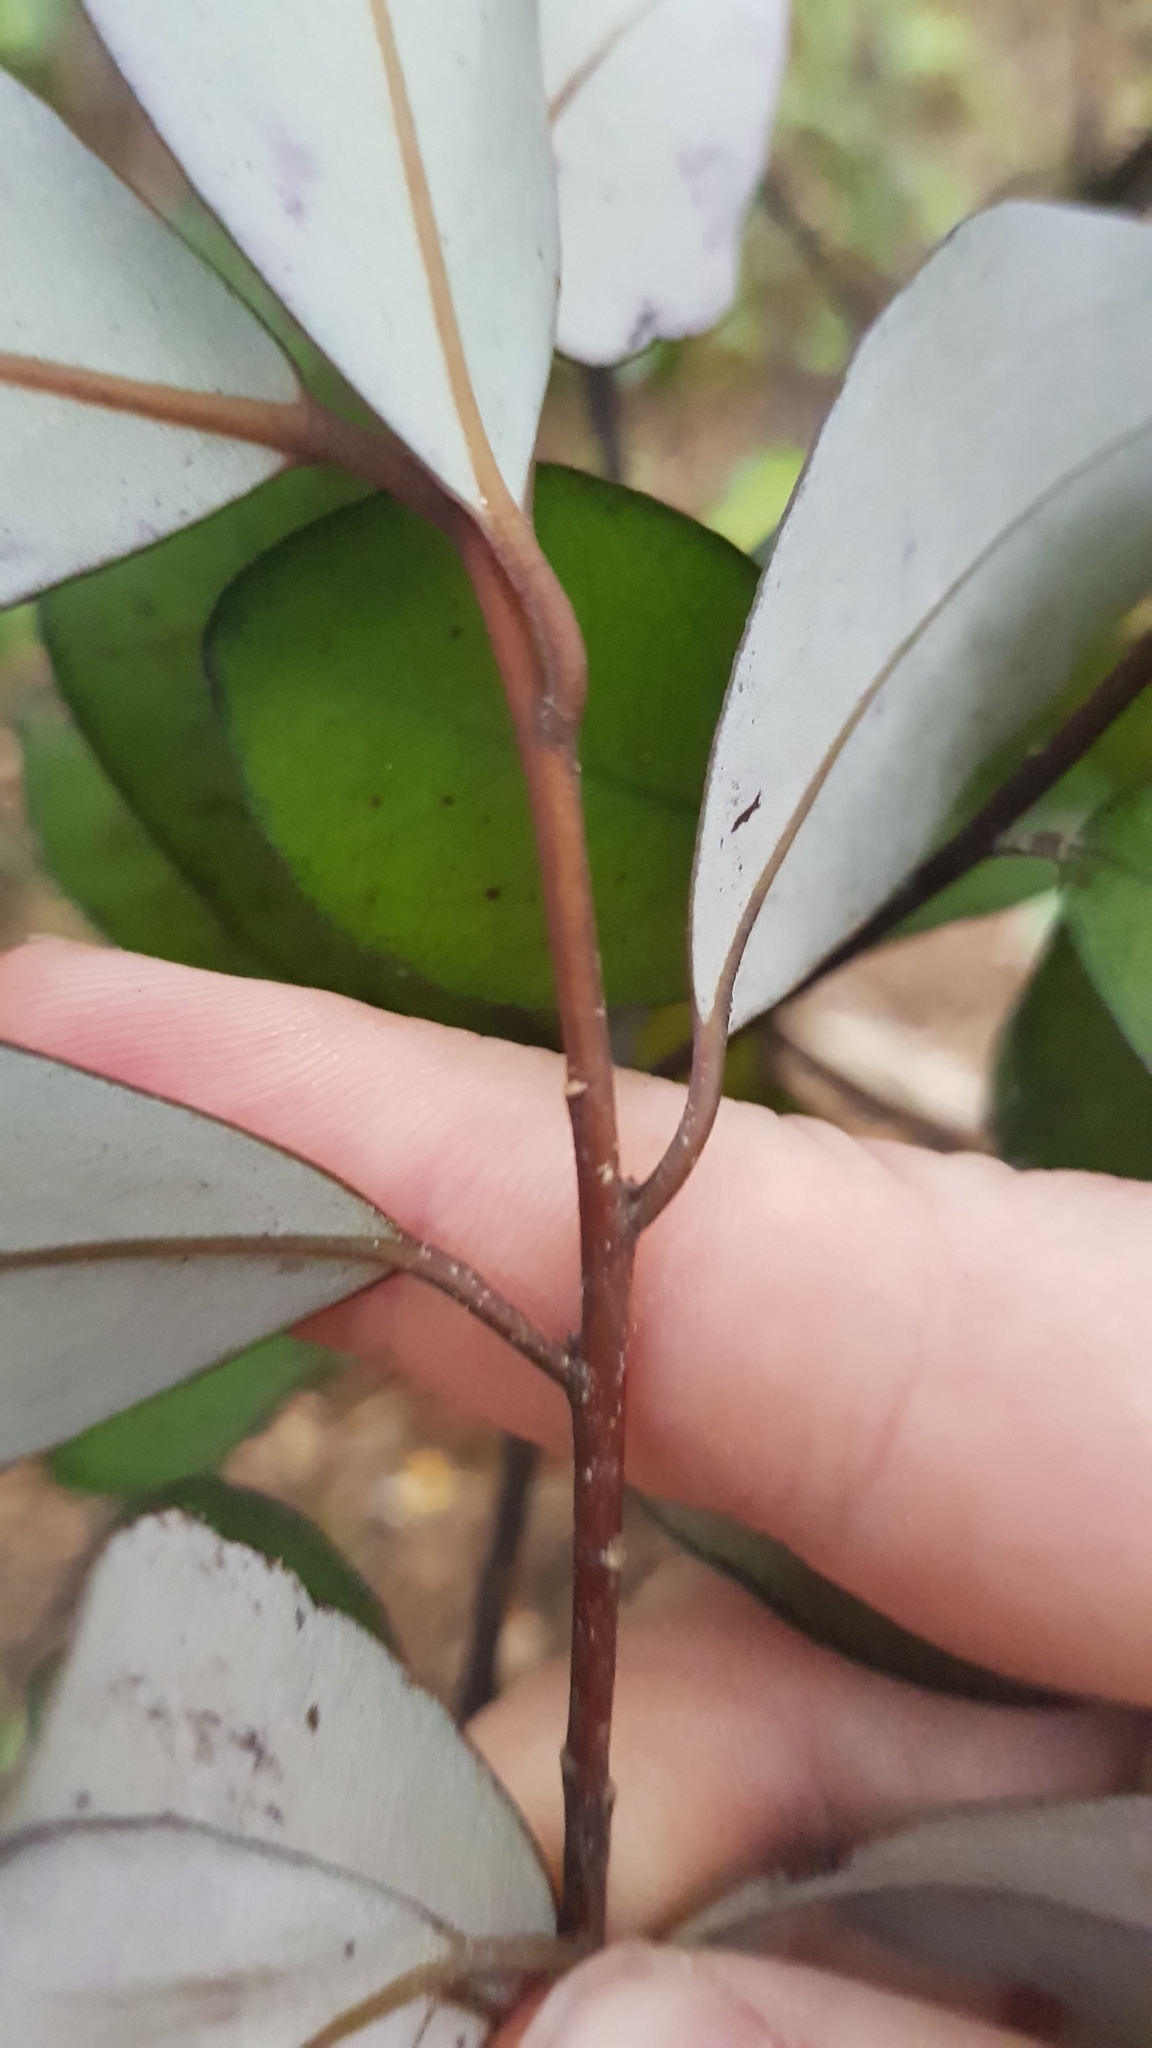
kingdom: Plantae
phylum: Tracheophyta
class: Magnoliopsida
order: Canellales
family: Winteraceae
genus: Pseudowintera
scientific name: Pseudowintera colorata
